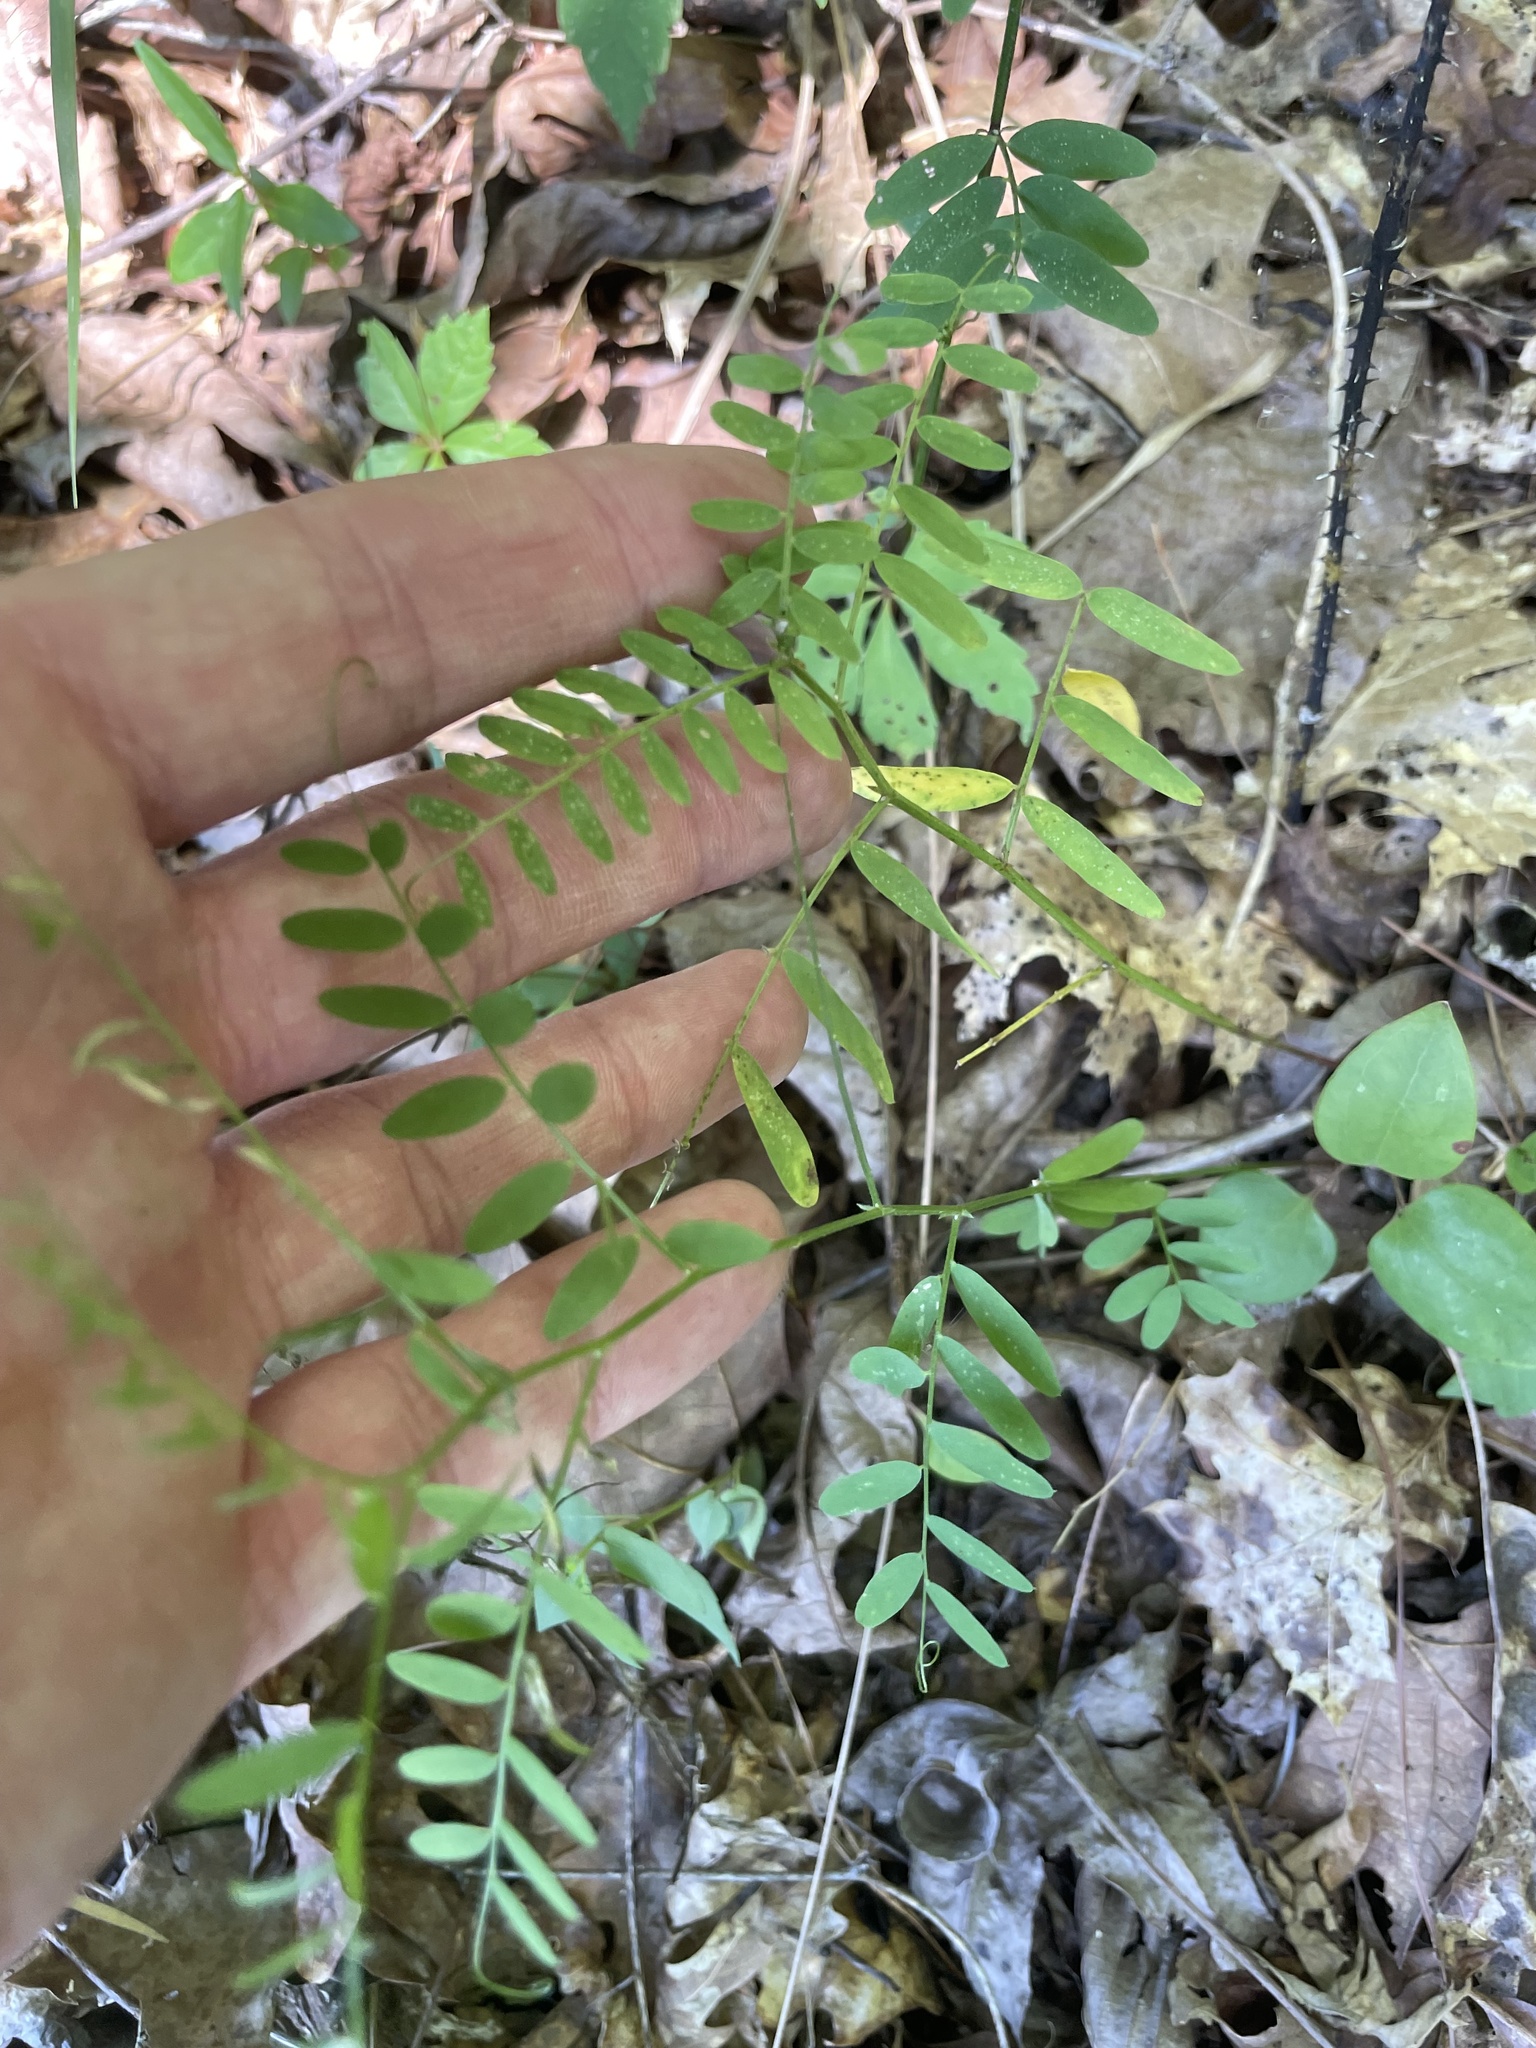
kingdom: Plantae
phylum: Tracheophyta
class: Magnoliopsida
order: Fabales
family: Fabaceae
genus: Vicia
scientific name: Vicia caroliniana
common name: Carolina vetch
